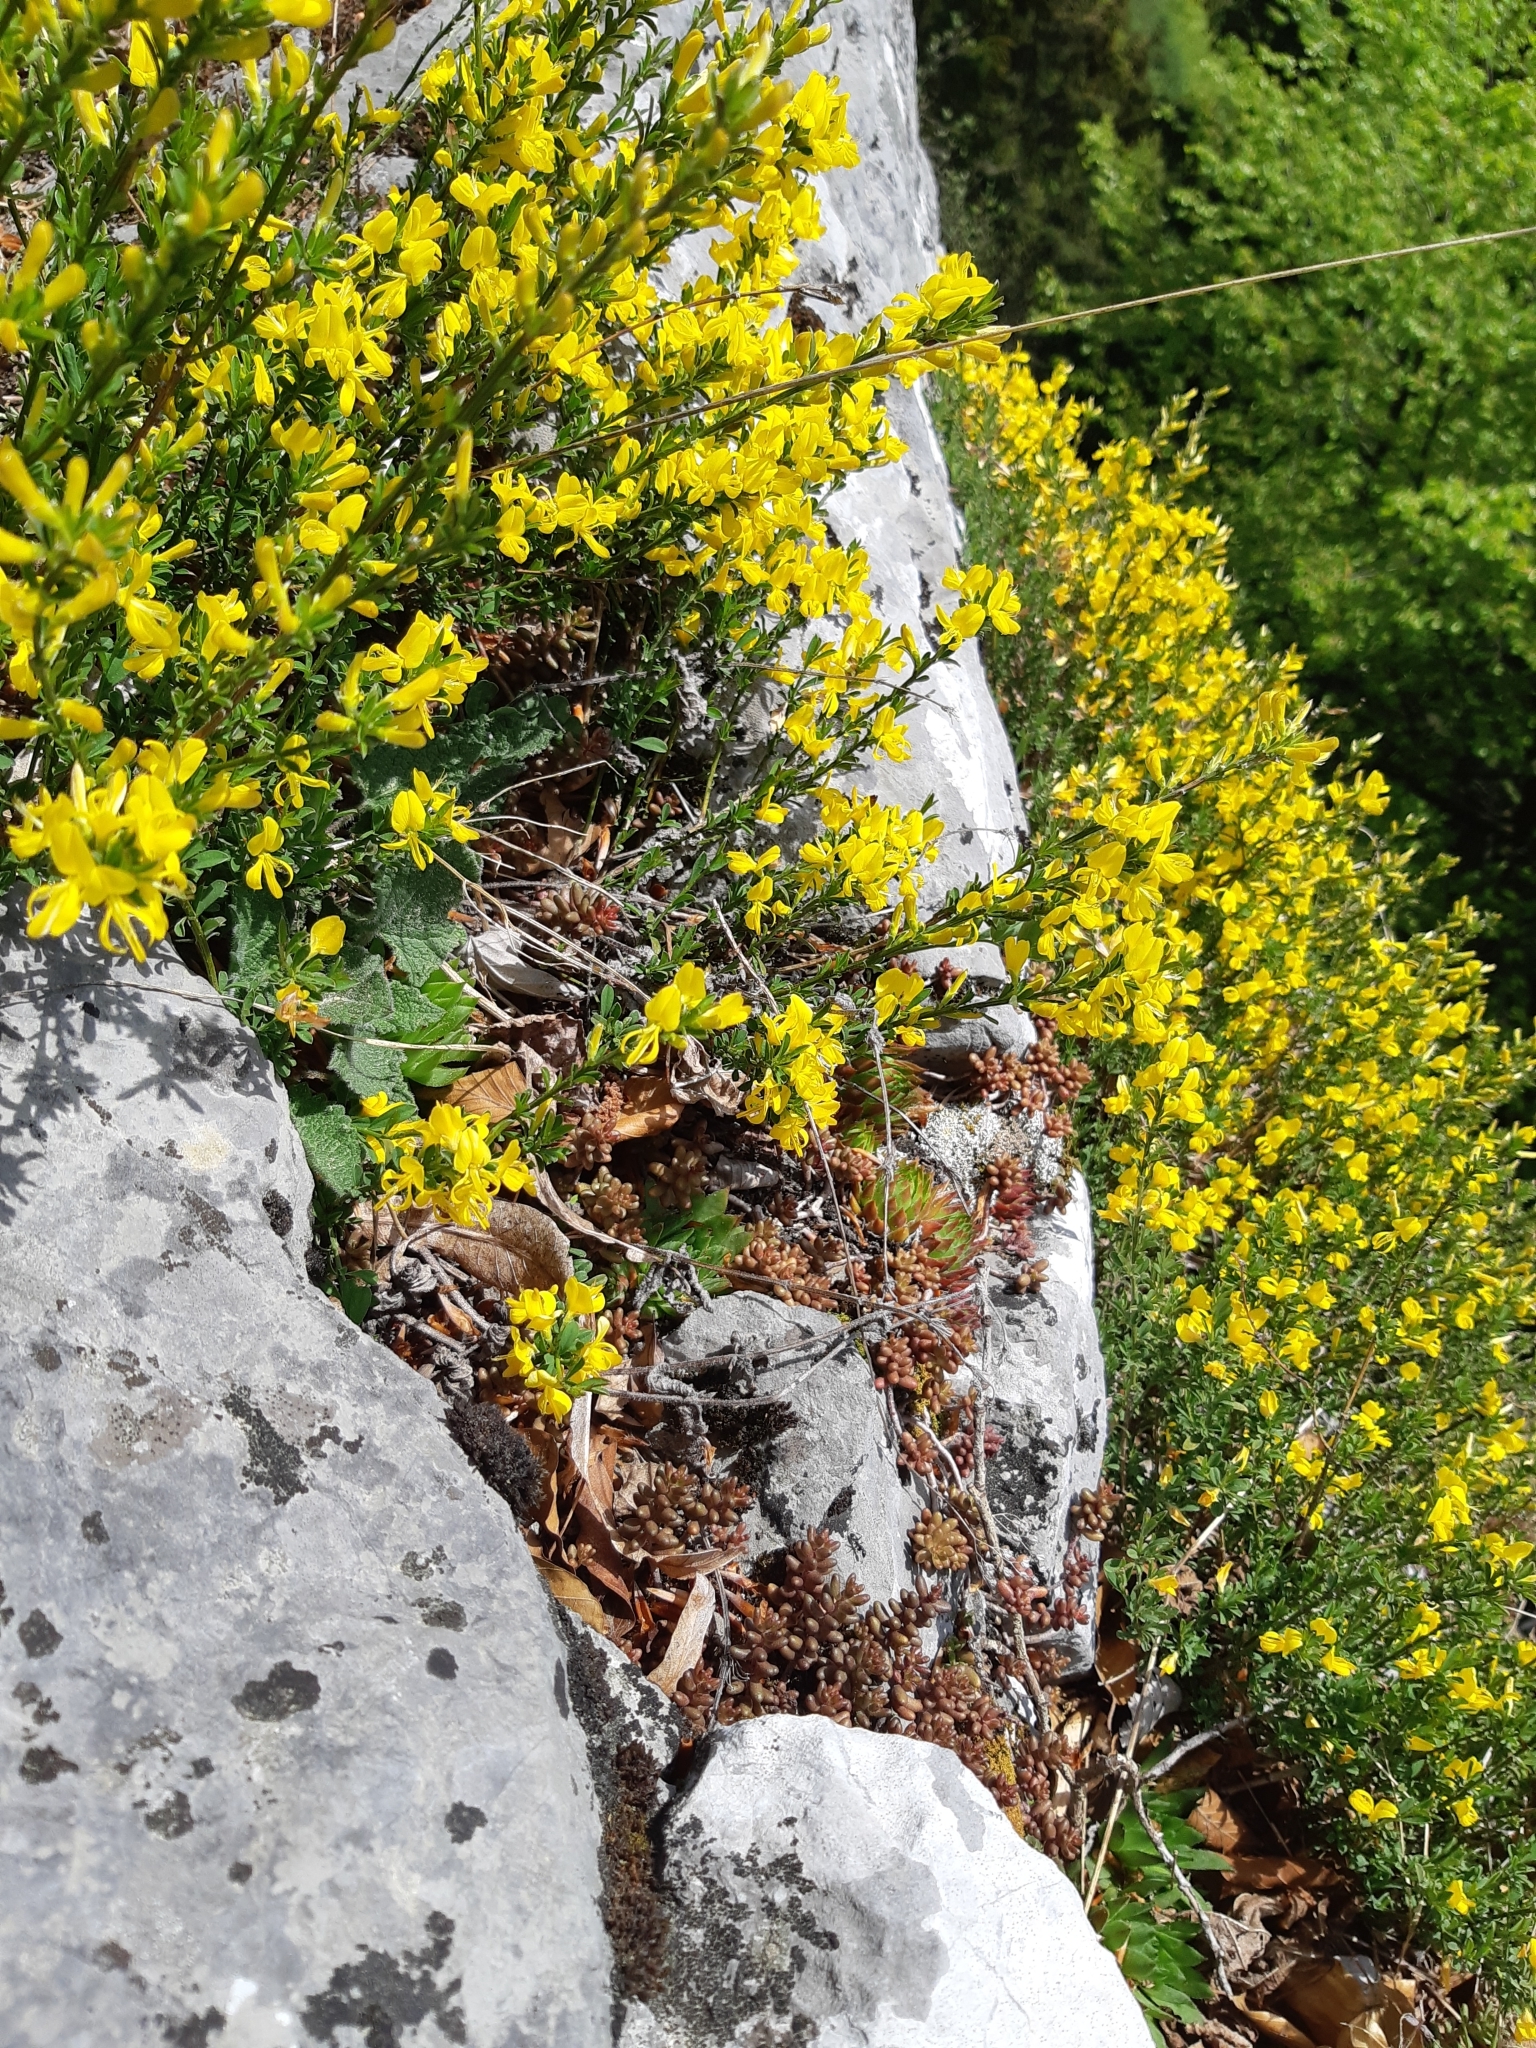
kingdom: Plantae
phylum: Tracheophyta
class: Magnoliopsida
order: Fabales
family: Fabaceae
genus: Genista
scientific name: Genista pilosa
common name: Hairy greenweed
